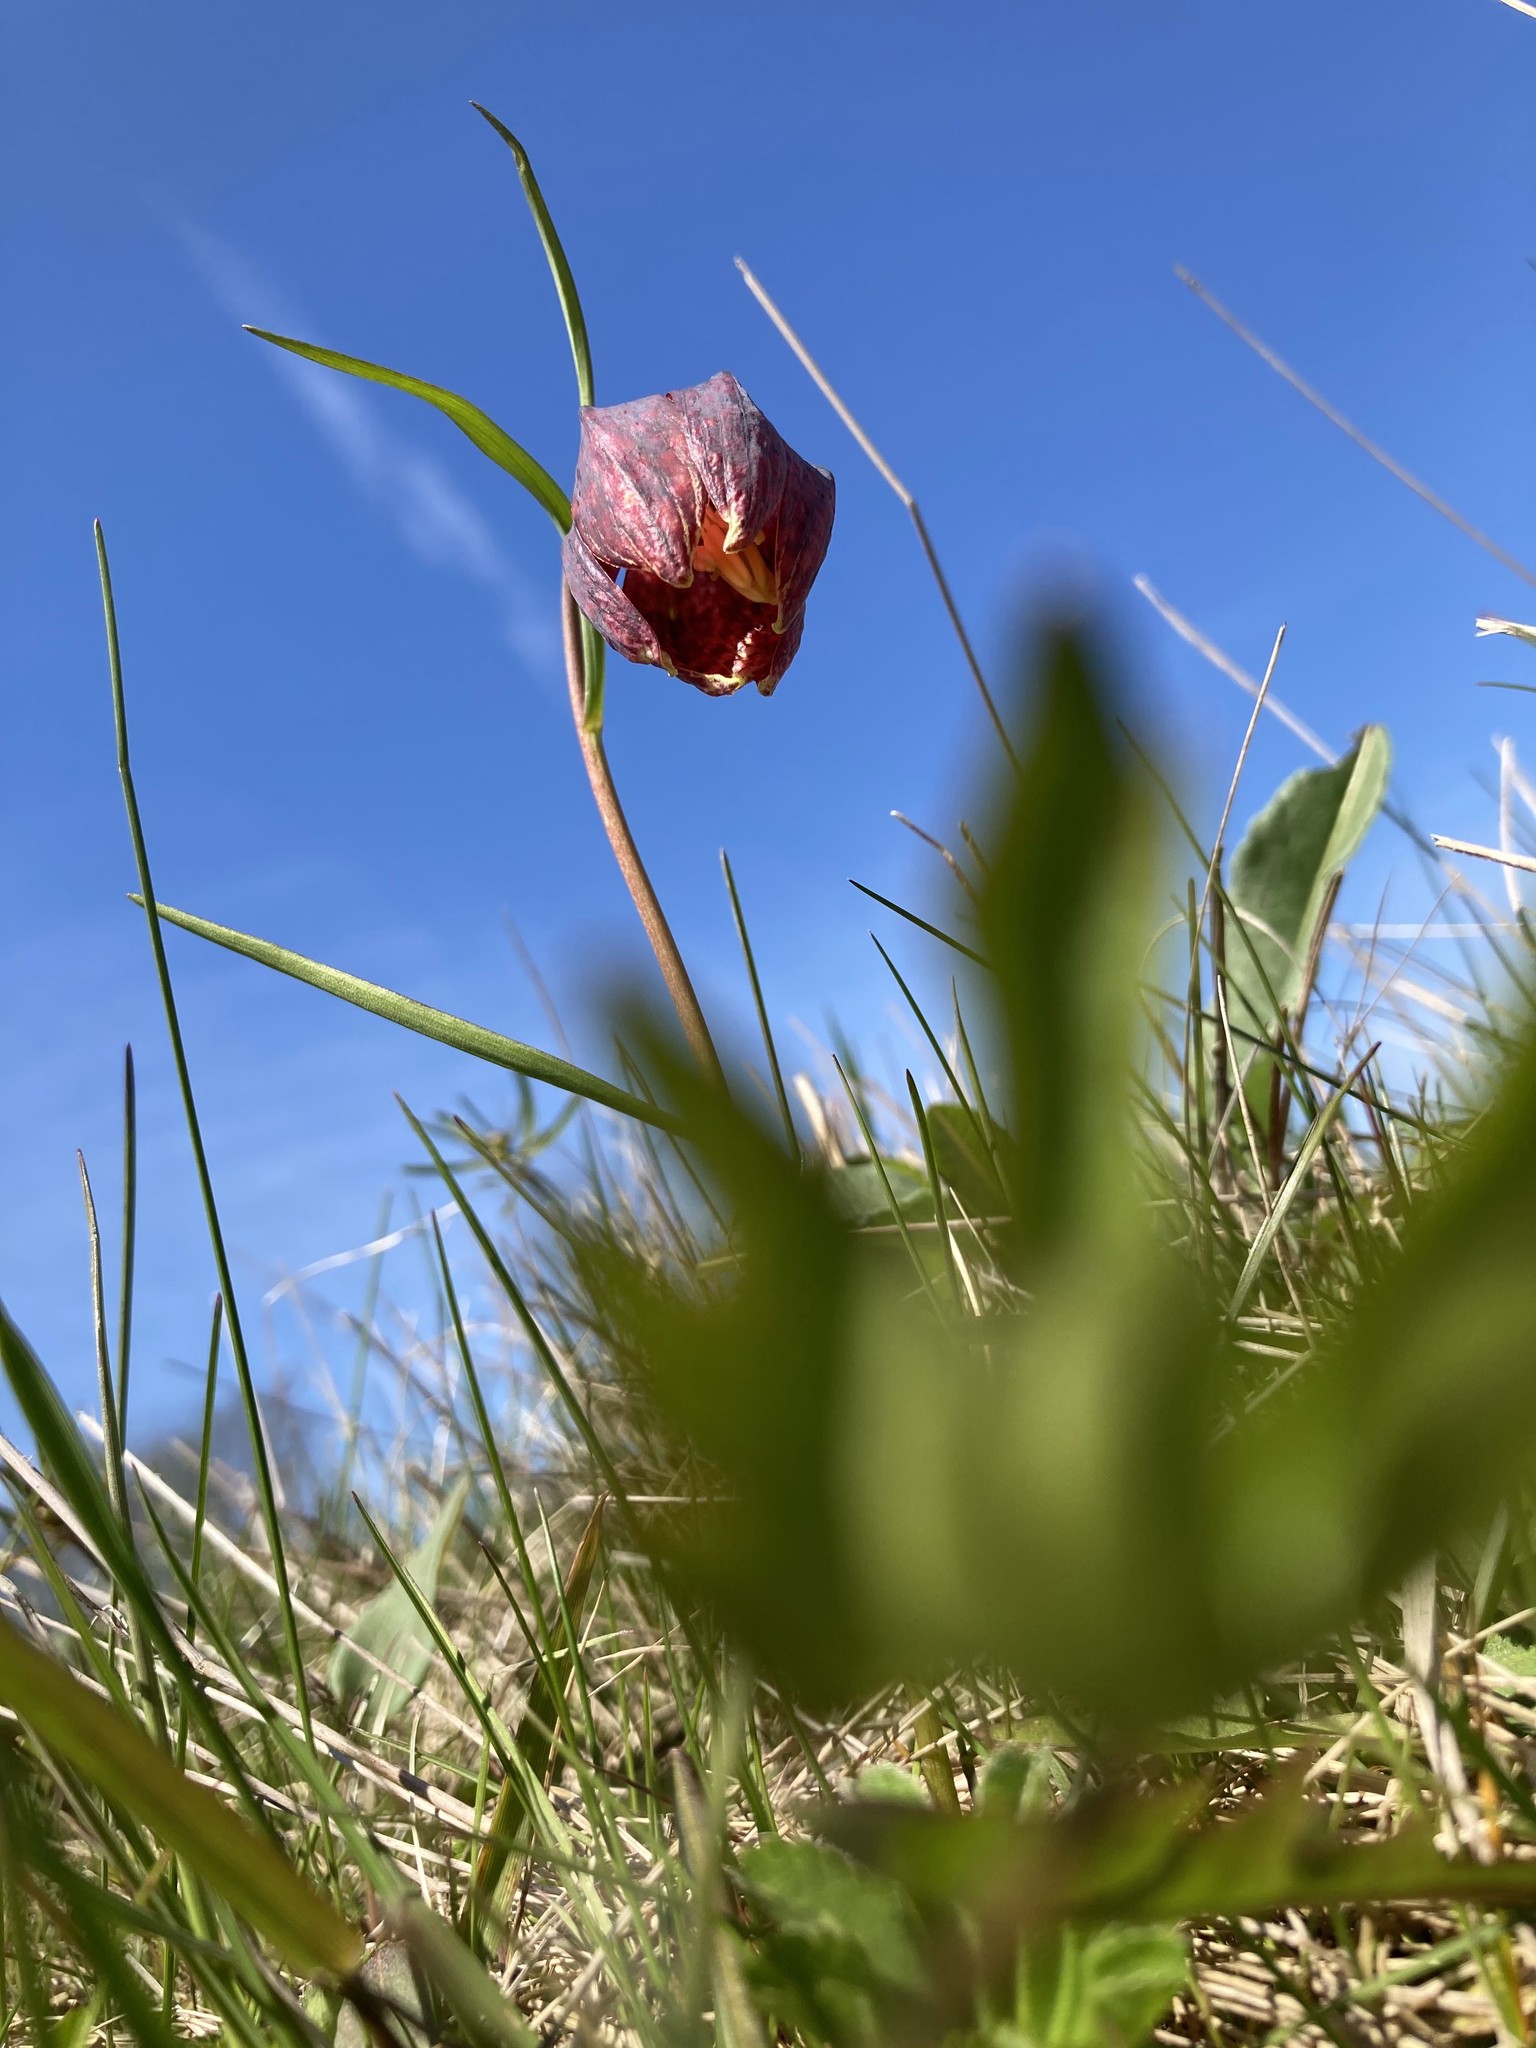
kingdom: Plantae
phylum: Tracheophyta
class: Liliopsida
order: Liliales
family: Liliaceae
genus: Fritillaria
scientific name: Fritillaria meleagris
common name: Fritillary
